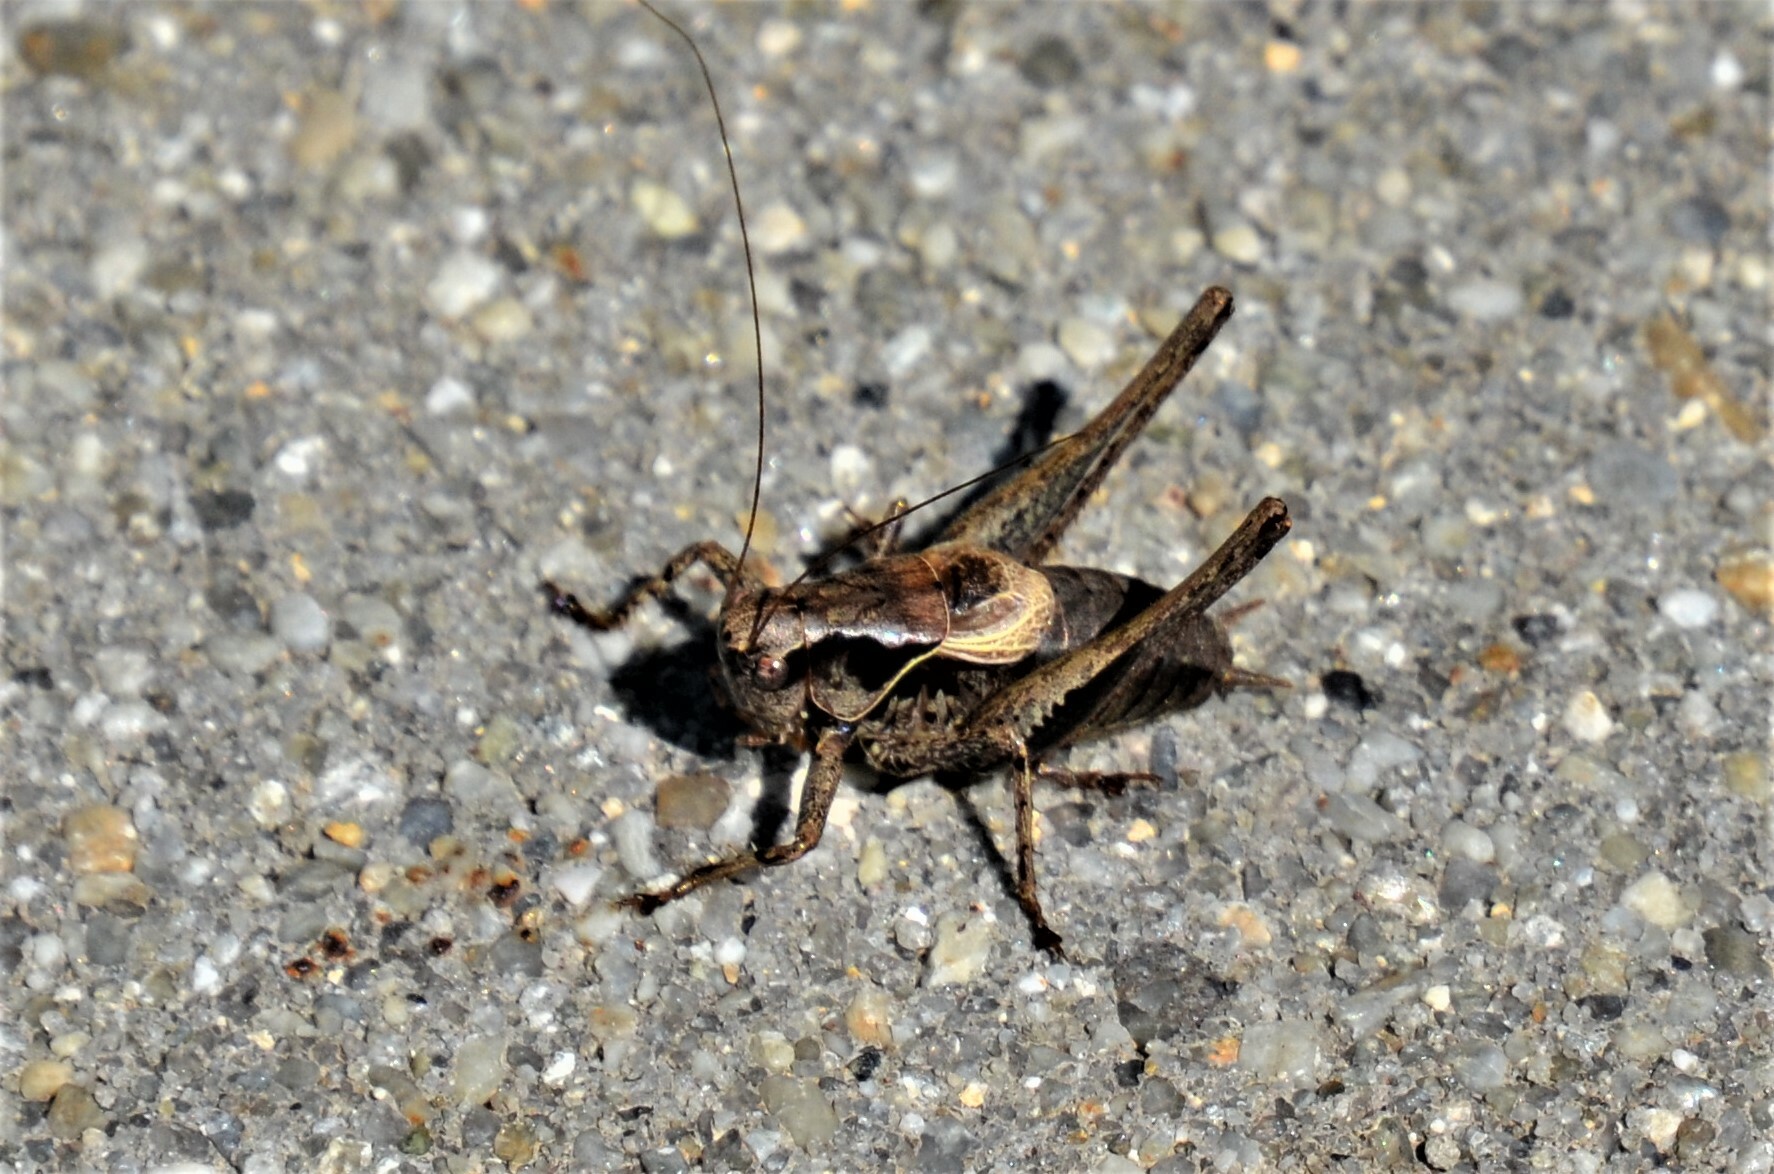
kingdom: Animalia
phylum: Arthropoda
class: Insecta
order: Orthoptera
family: Tettigoniidae
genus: Pholidoptera
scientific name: Pholidoptera griseoaptera
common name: Dark bush-cricket
